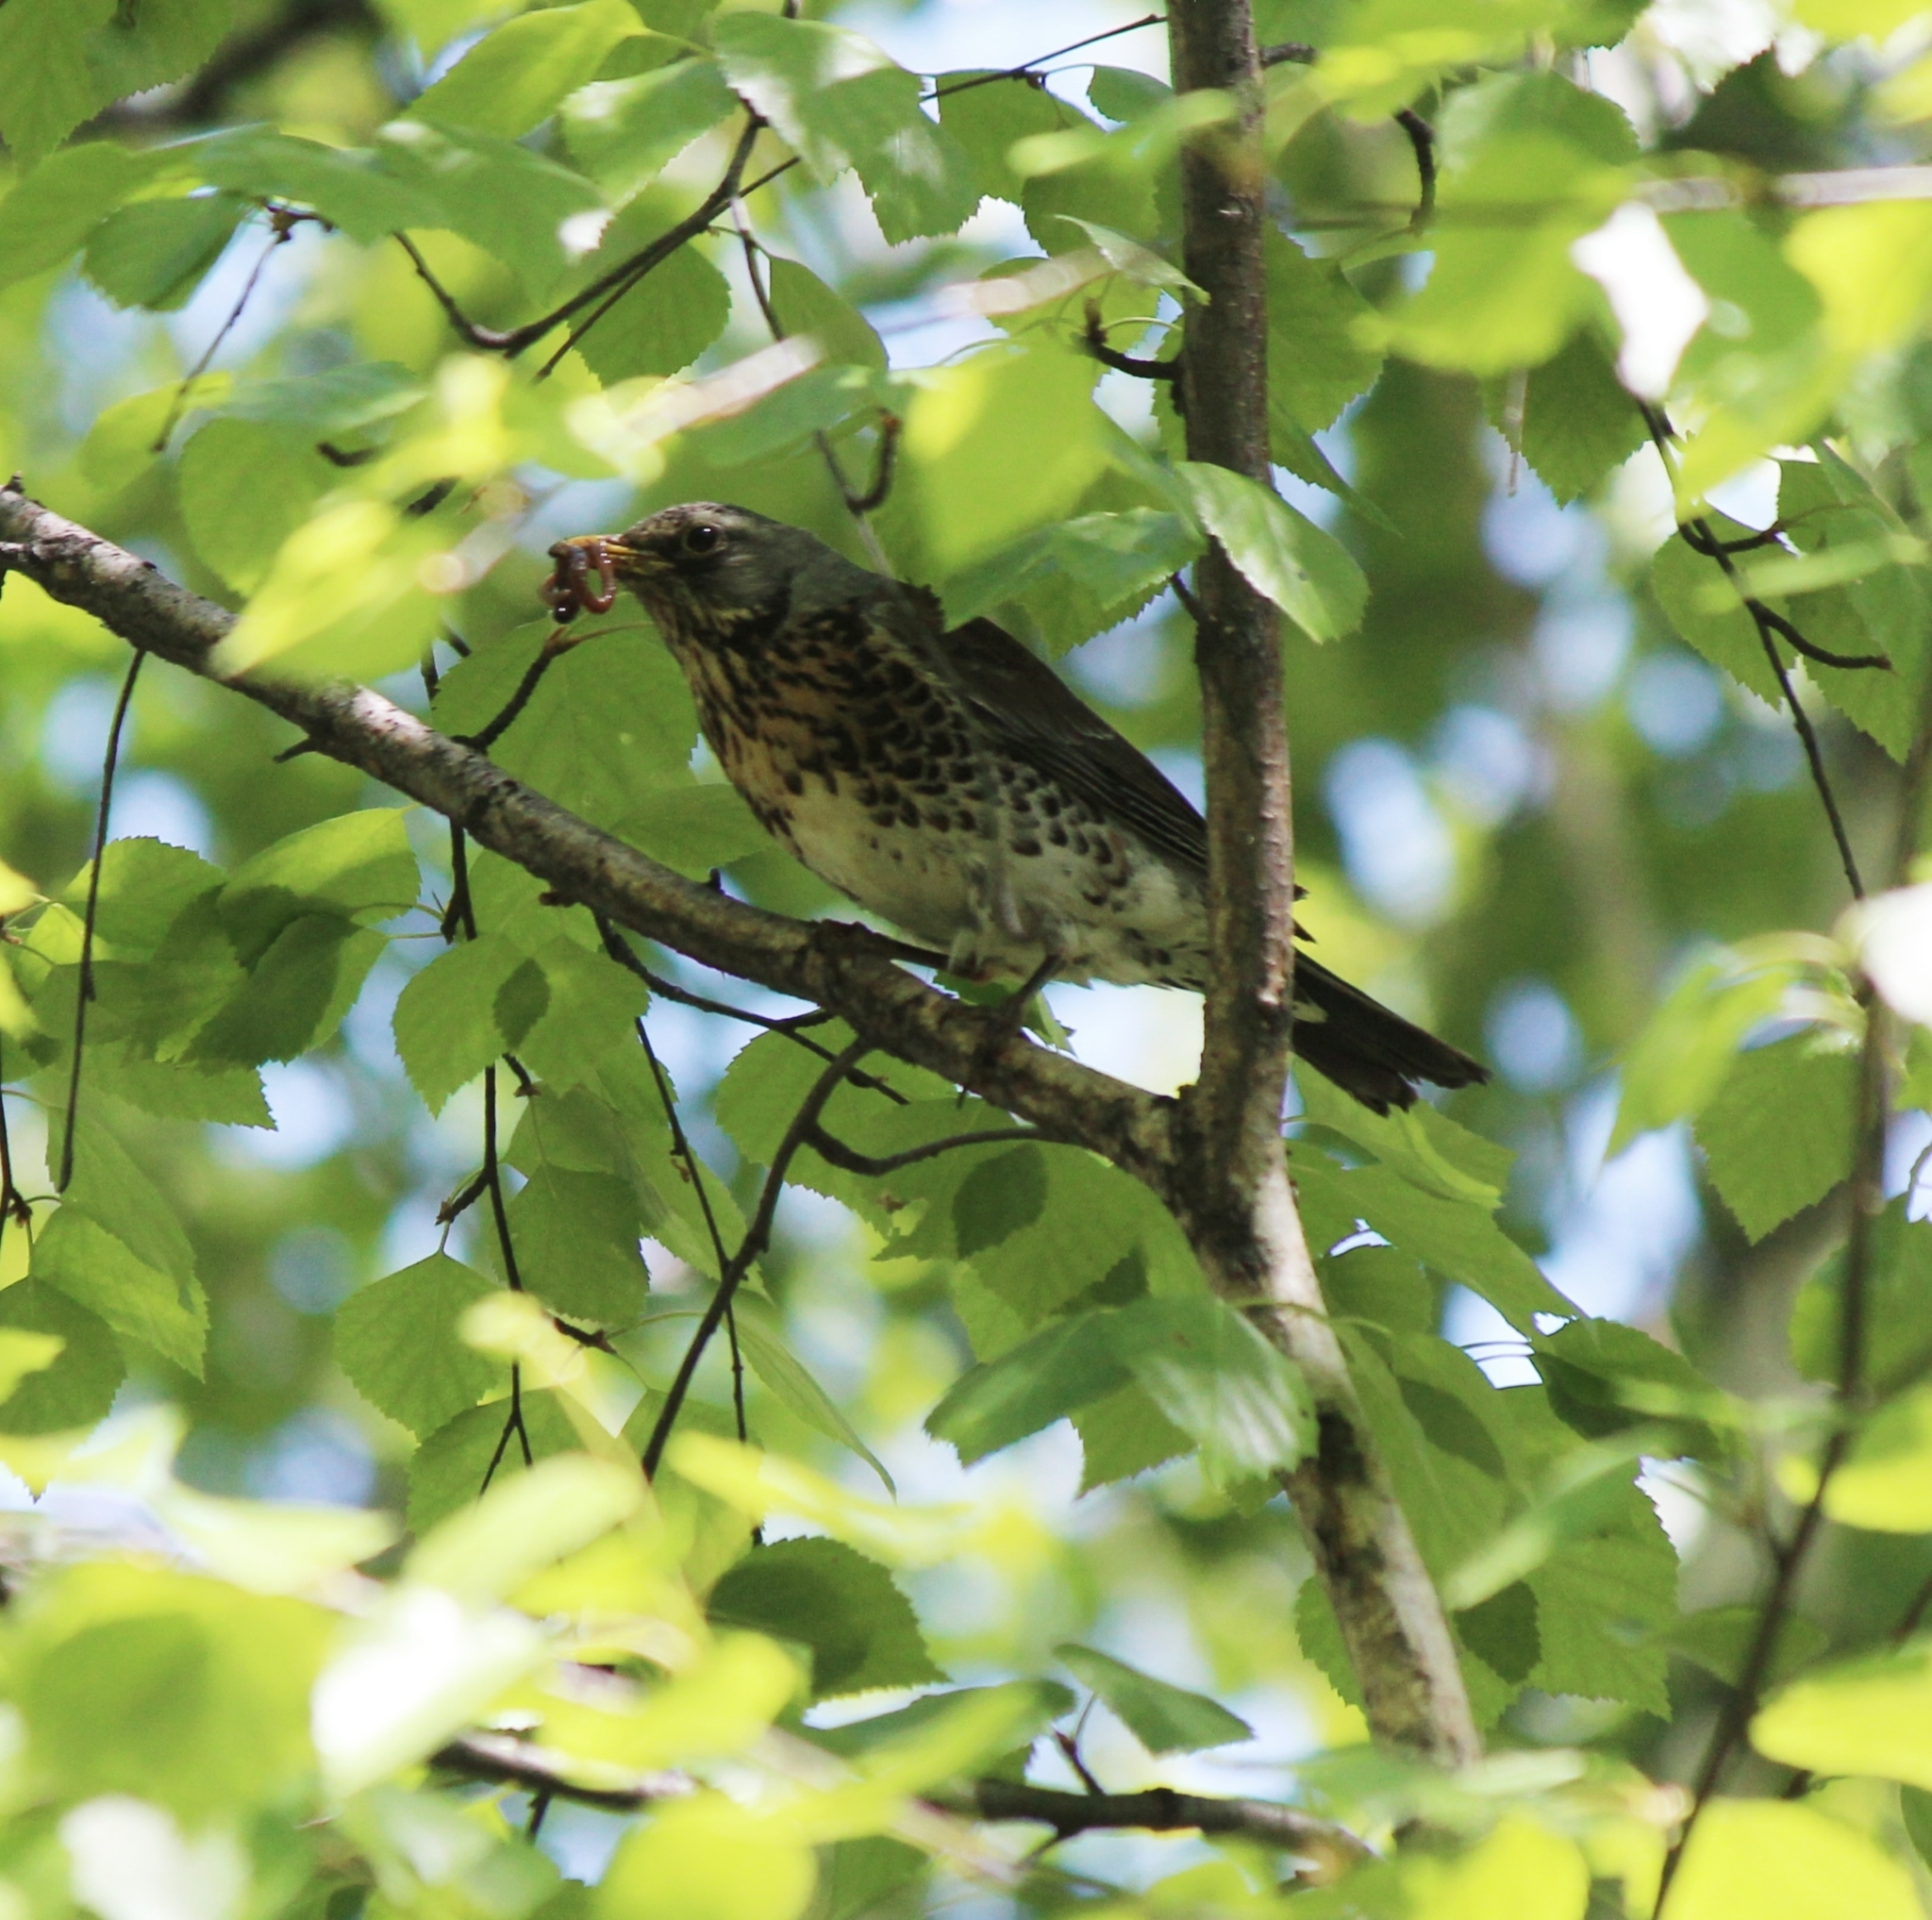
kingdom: Animalia
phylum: Chordata
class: Aves
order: Passeriformes
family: Turdidae
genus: Turdus
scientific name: Turdus pilaris
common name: Fieldfare
